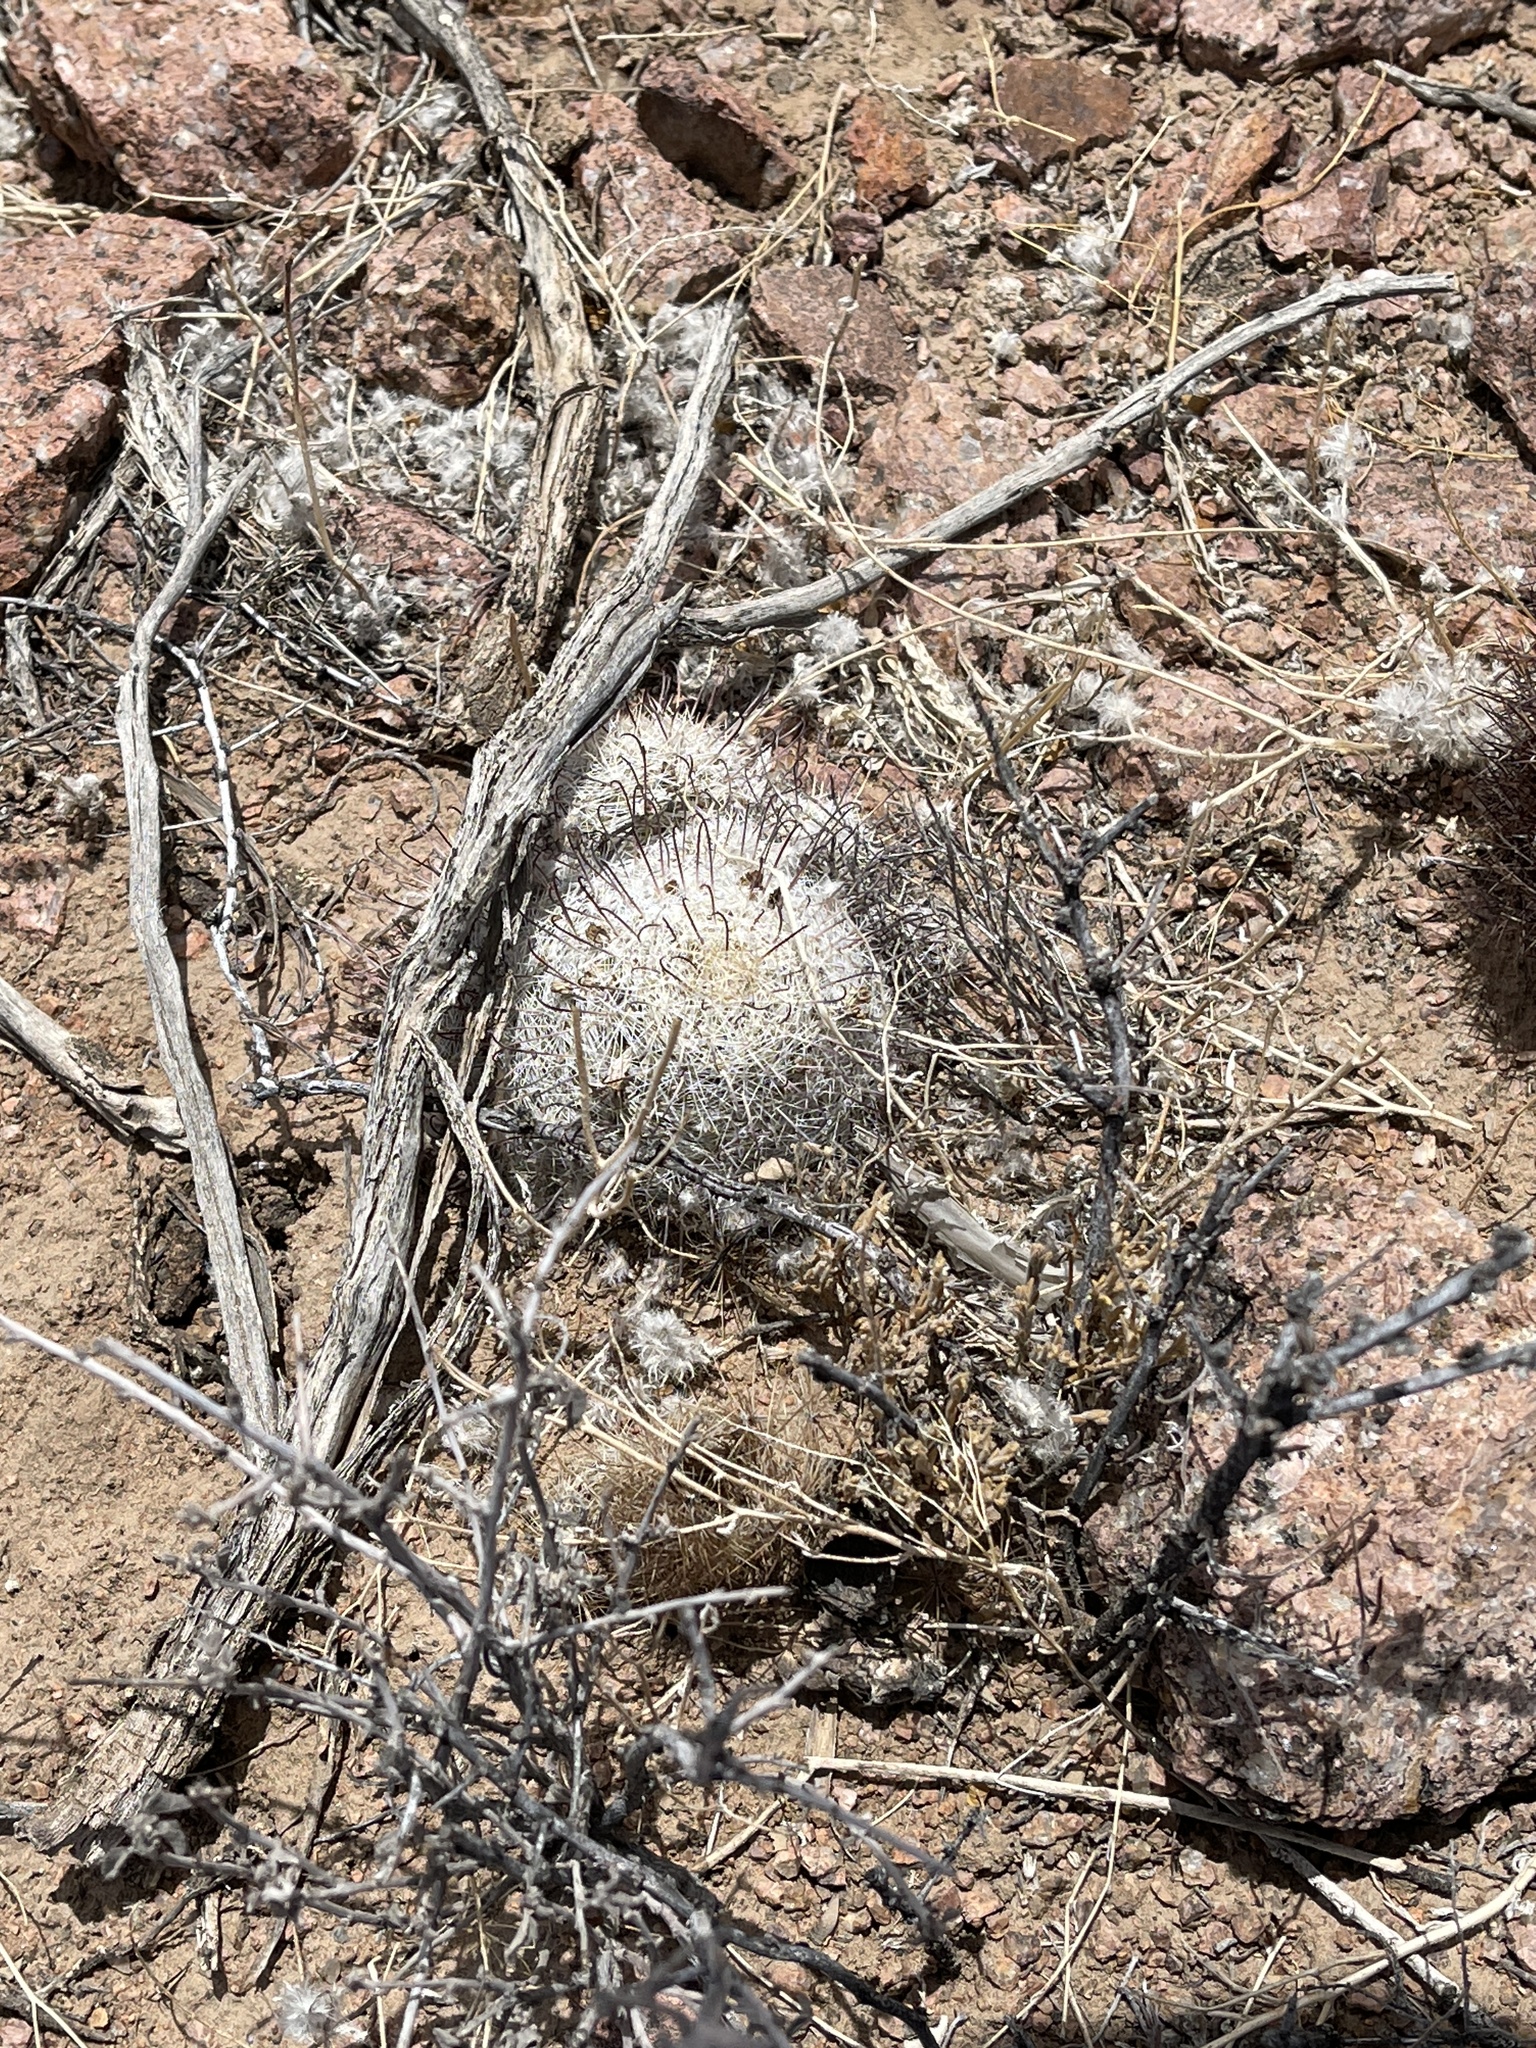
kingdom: Plantae
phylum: Tracheophyta
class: Magnoliopsida
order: Caryophyllales
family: Cactaceae
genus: Cochemiea
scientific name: Cochemiea grahamii
